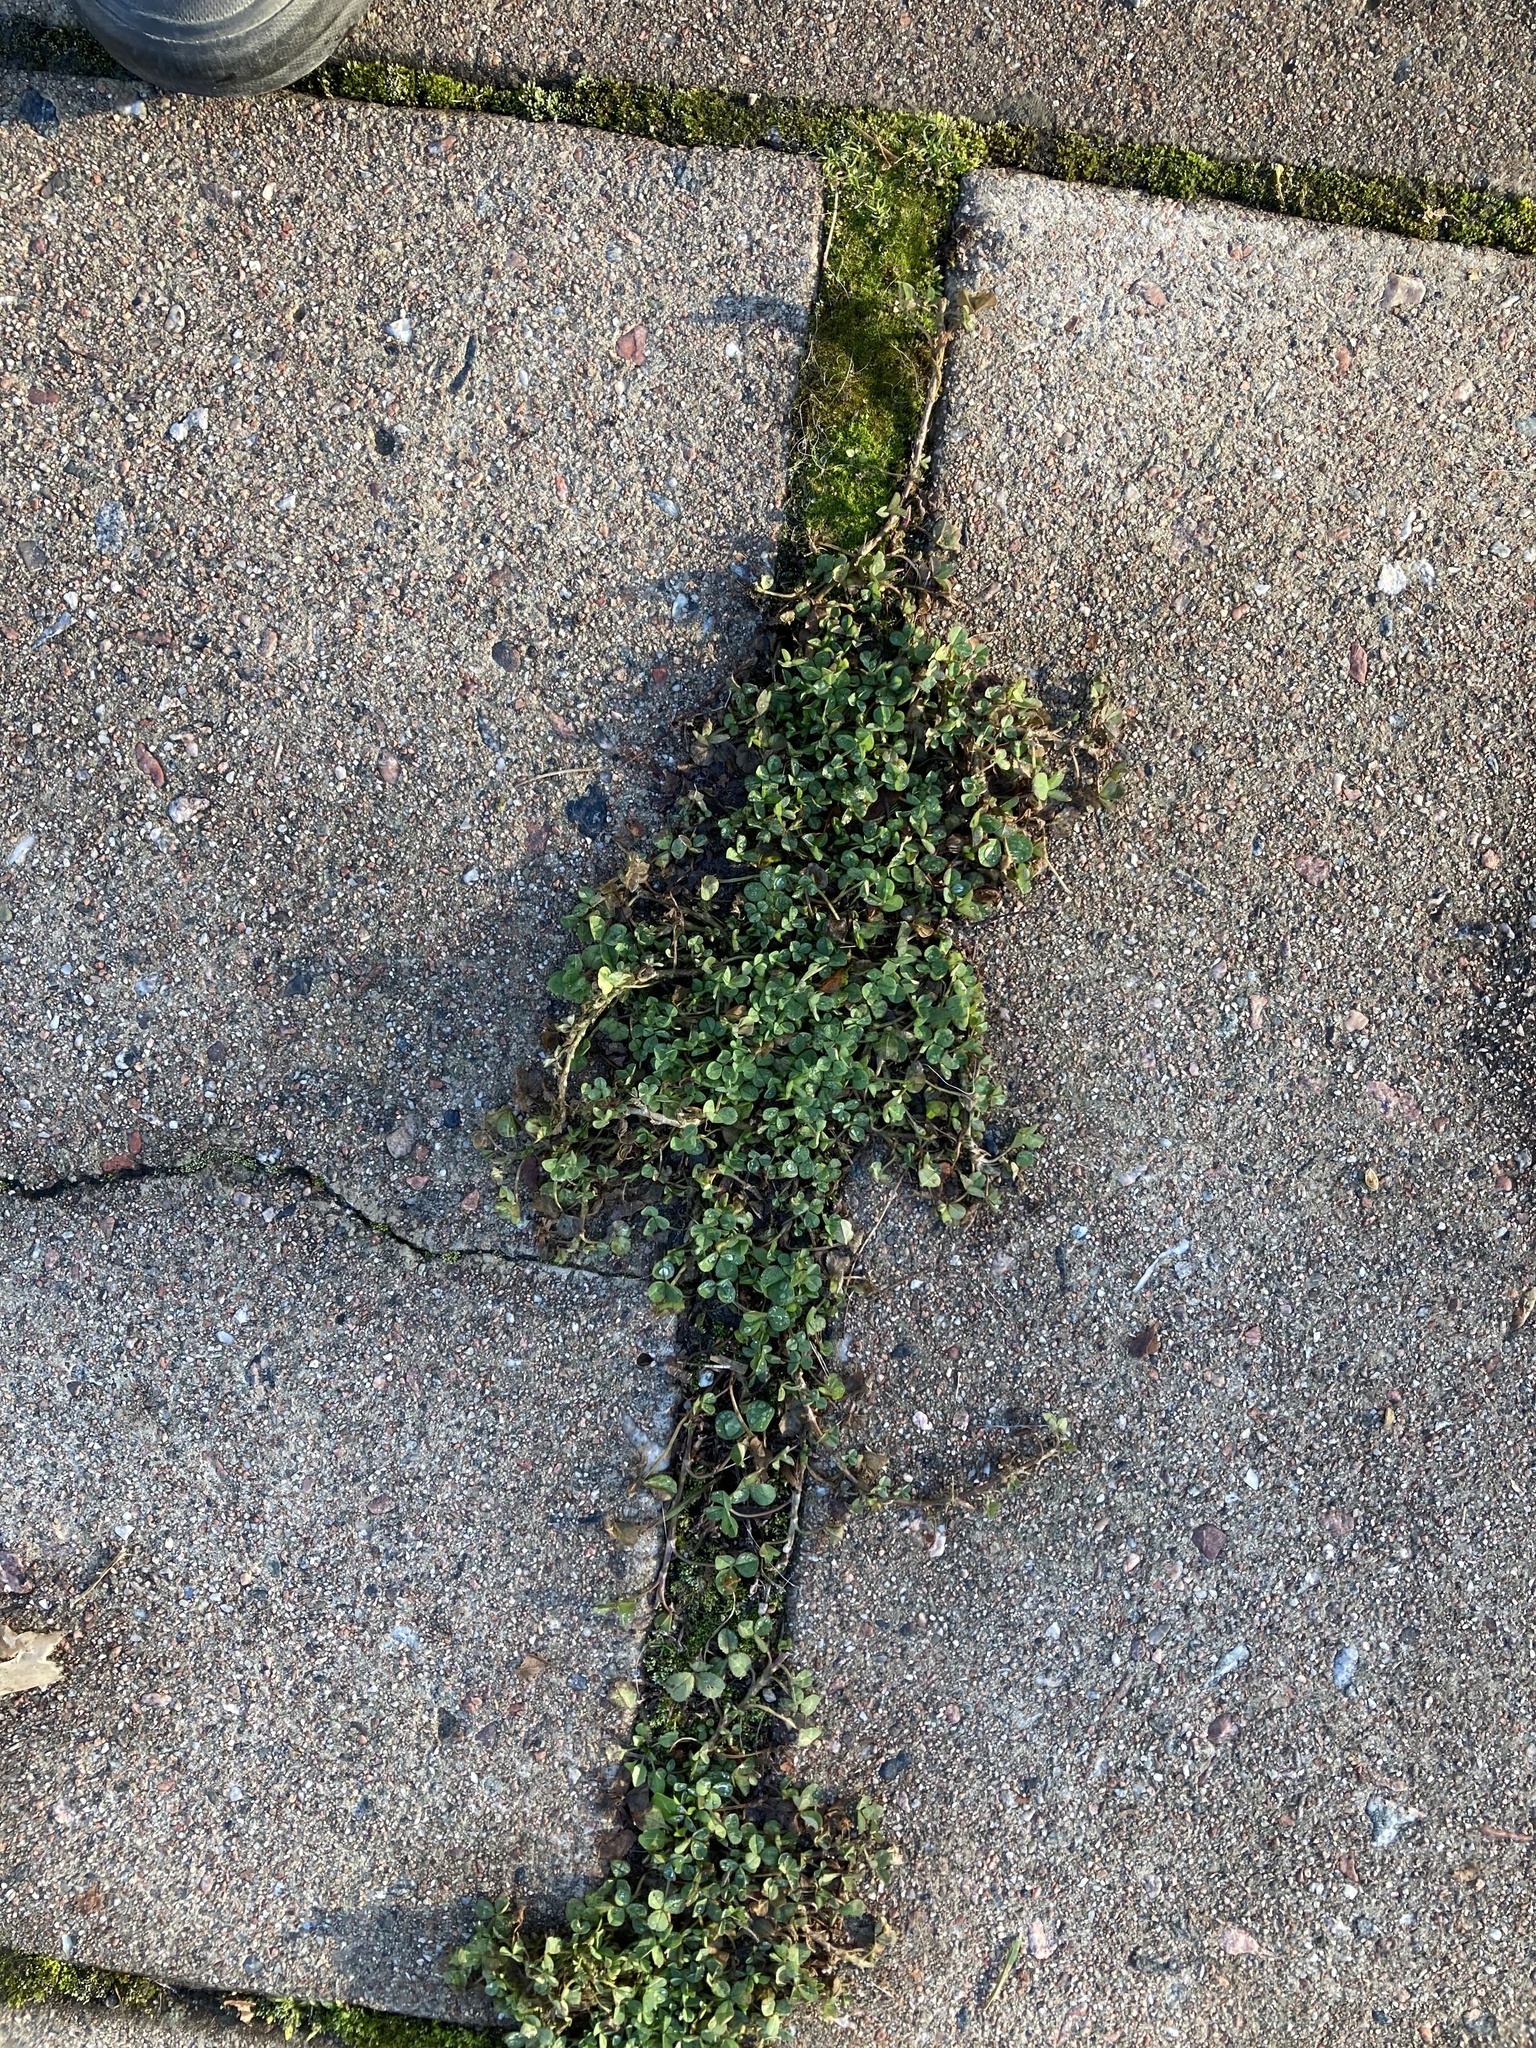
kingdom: Plantae
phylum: Tracheophyta
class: Magnoliopsida
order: Fabales
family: Fabaceae
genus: Trifolium
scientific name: Trifolium repens
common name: White clover
